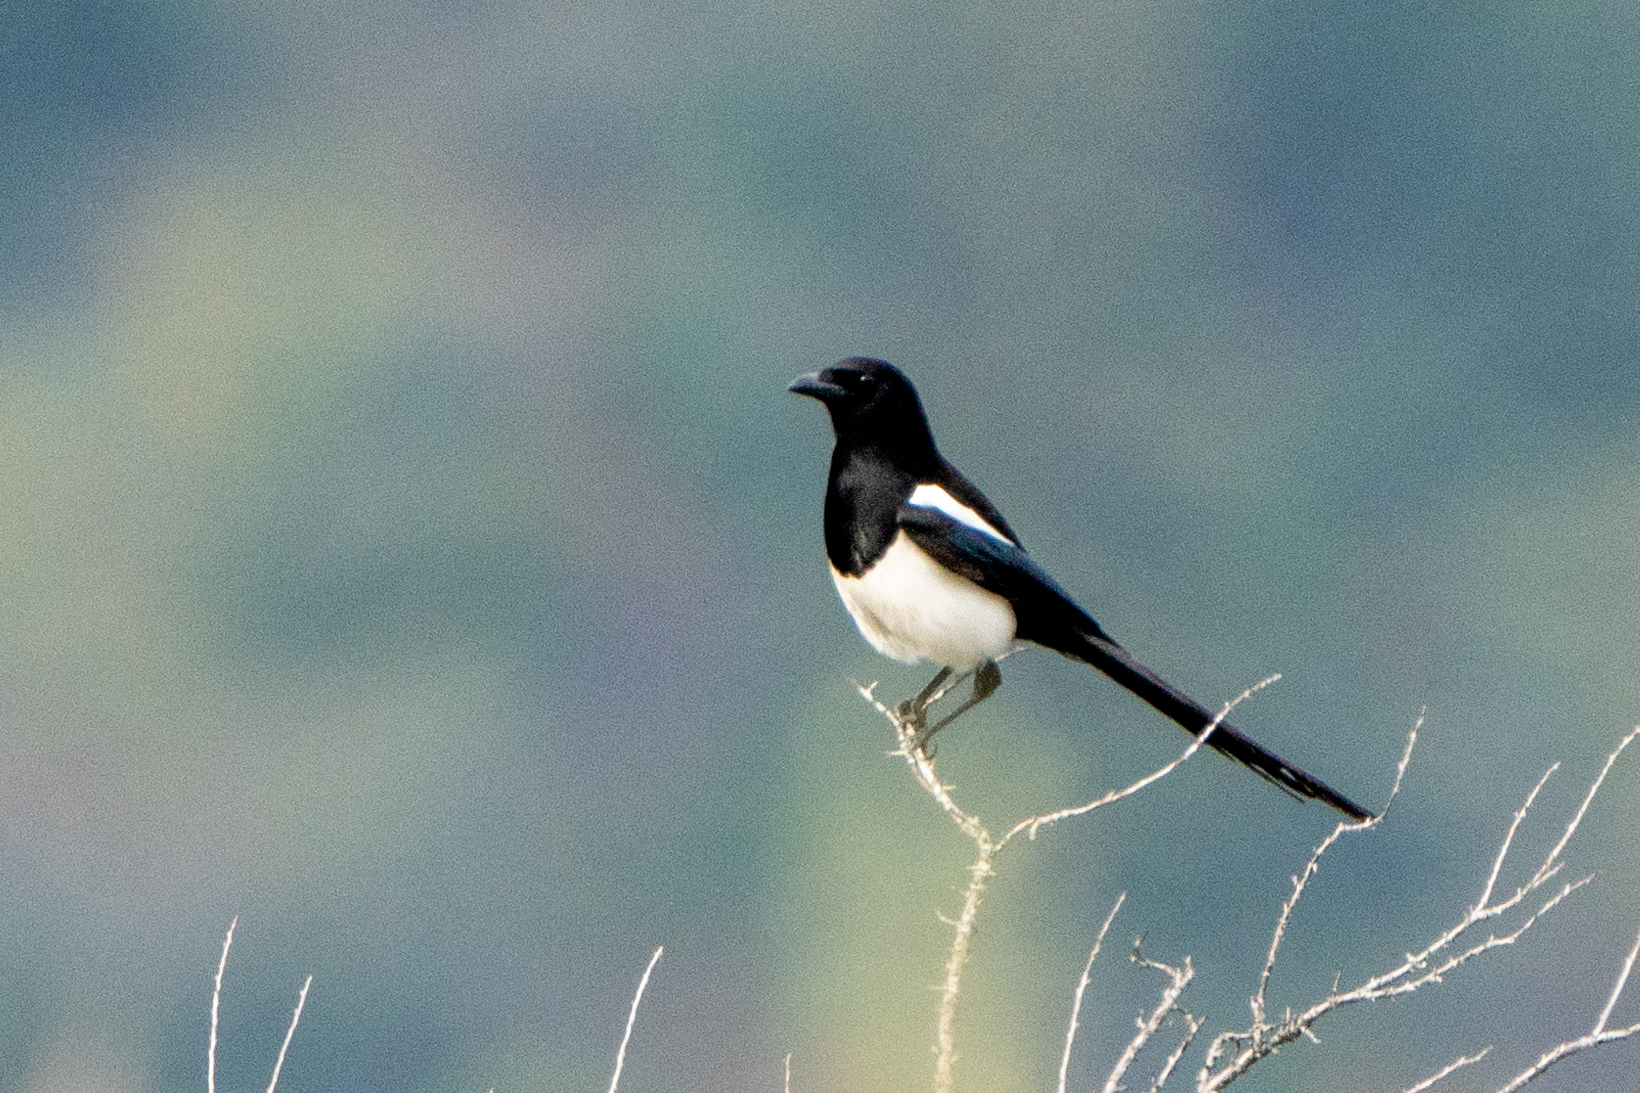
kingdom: Animalia
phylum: Chordata
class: Aves
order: Passeriformes
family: Corvidae
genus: Pica
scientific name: Pica hudsonia
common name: Black-billed magpie
